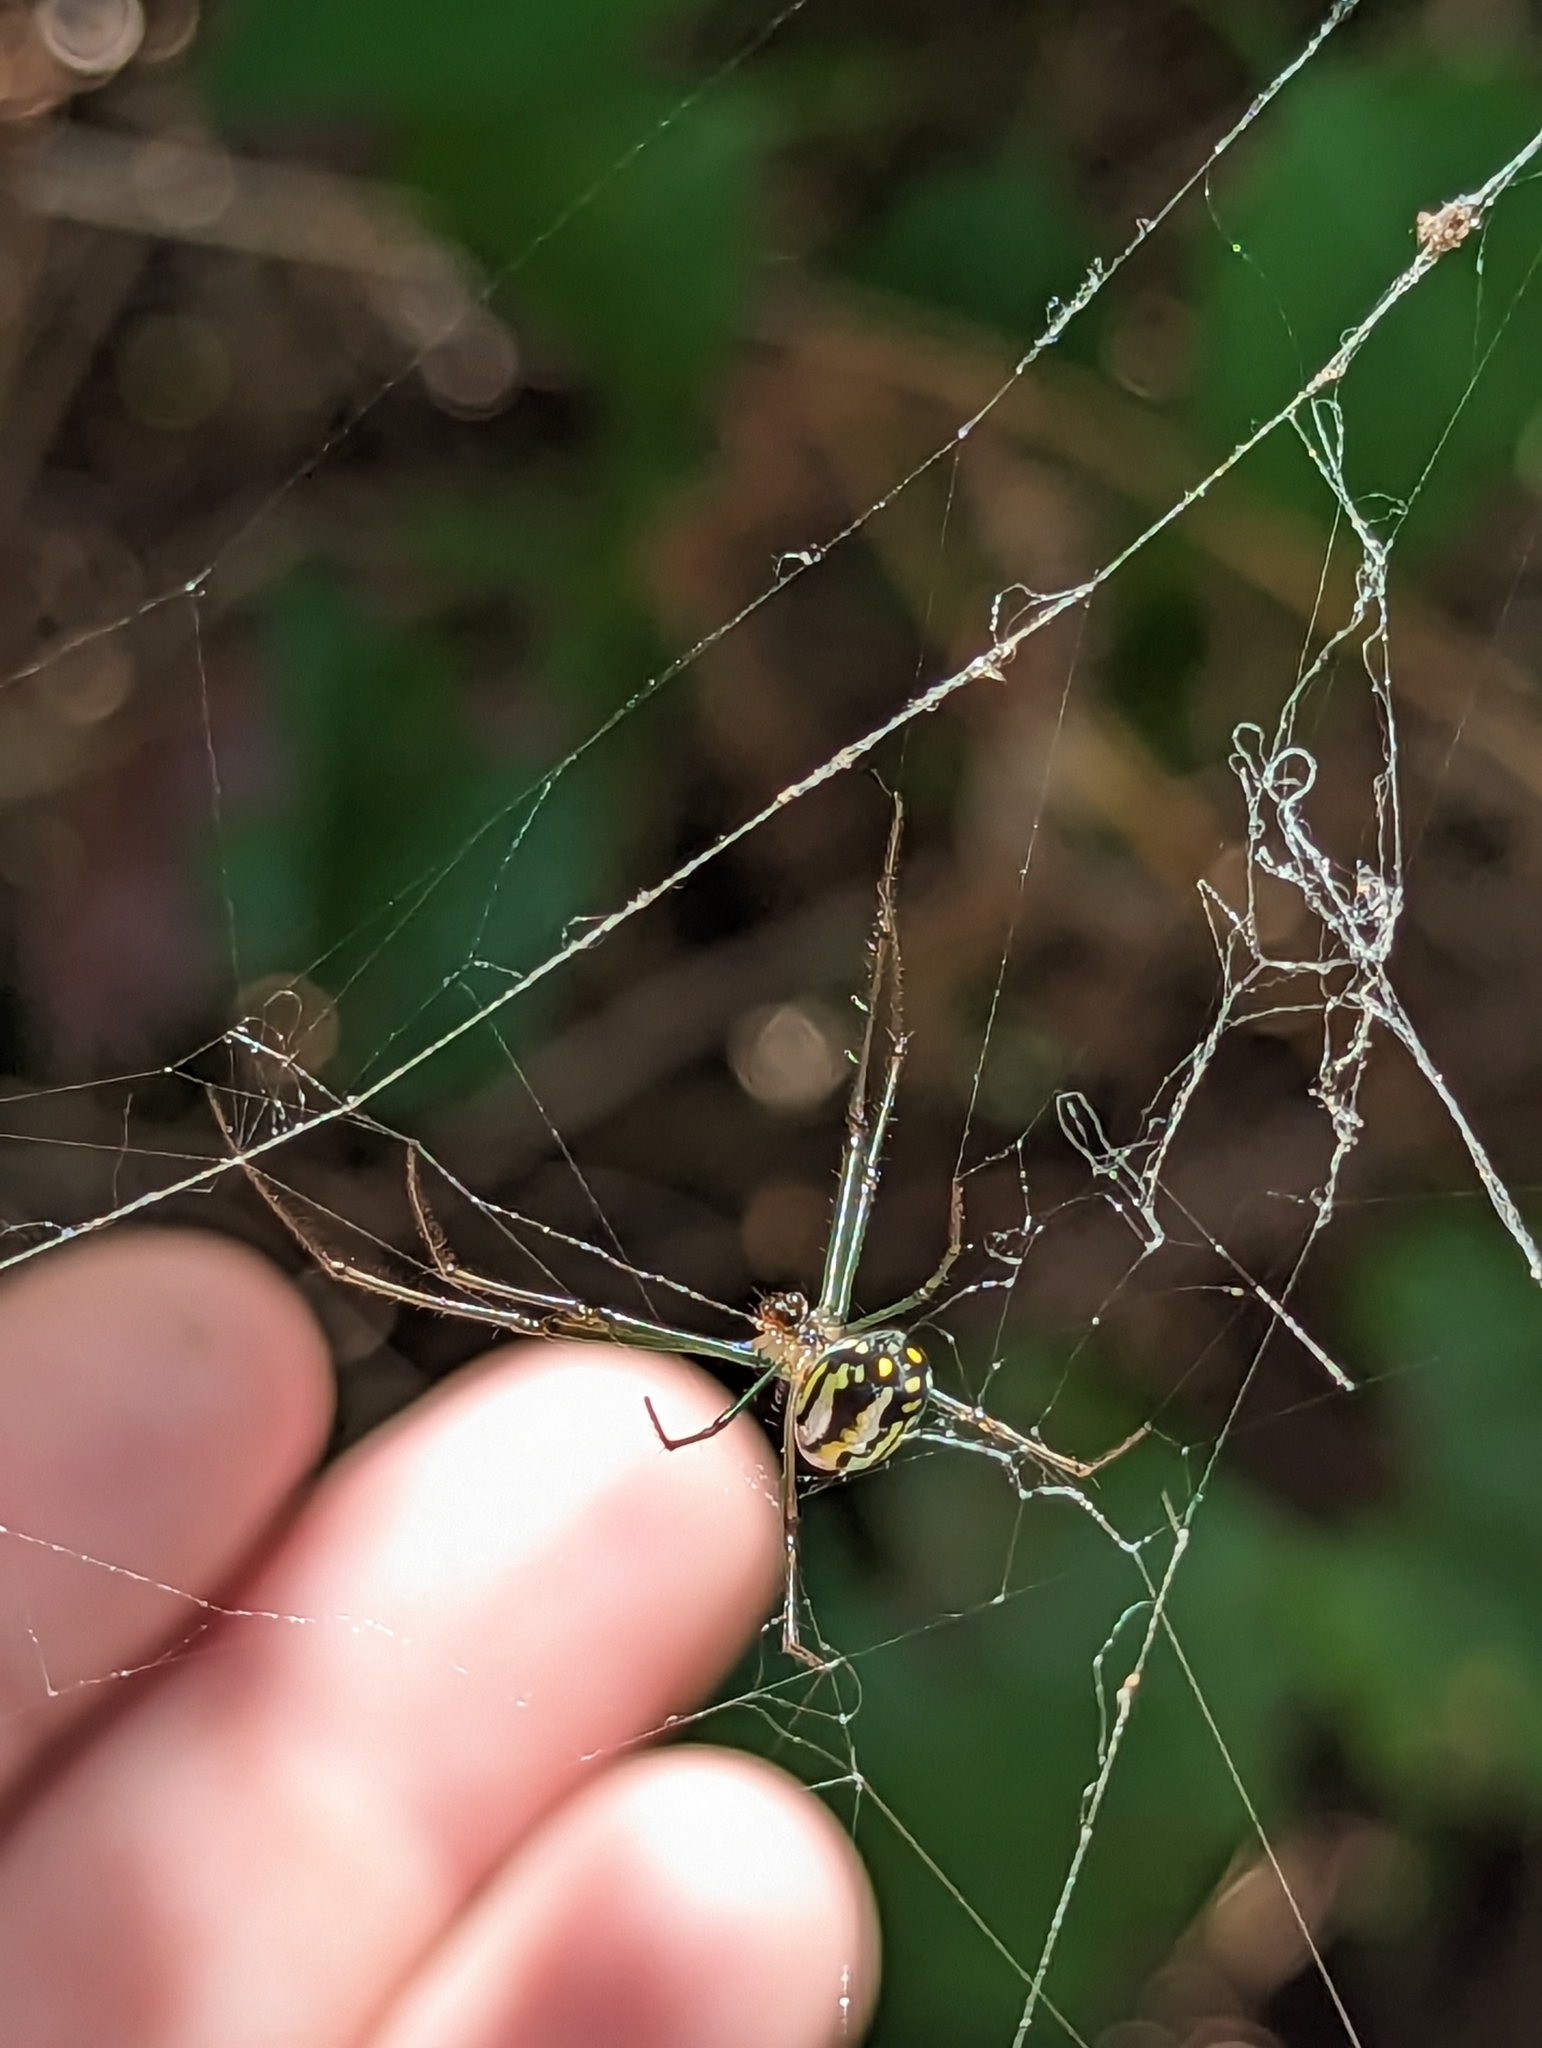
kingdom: Animalia
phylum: Arthropoda
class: Arachnida
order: Araneae
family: Tetragnathidae
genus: Leucauge
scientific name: Leucauge argyra
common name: Longjawed orb weavers
